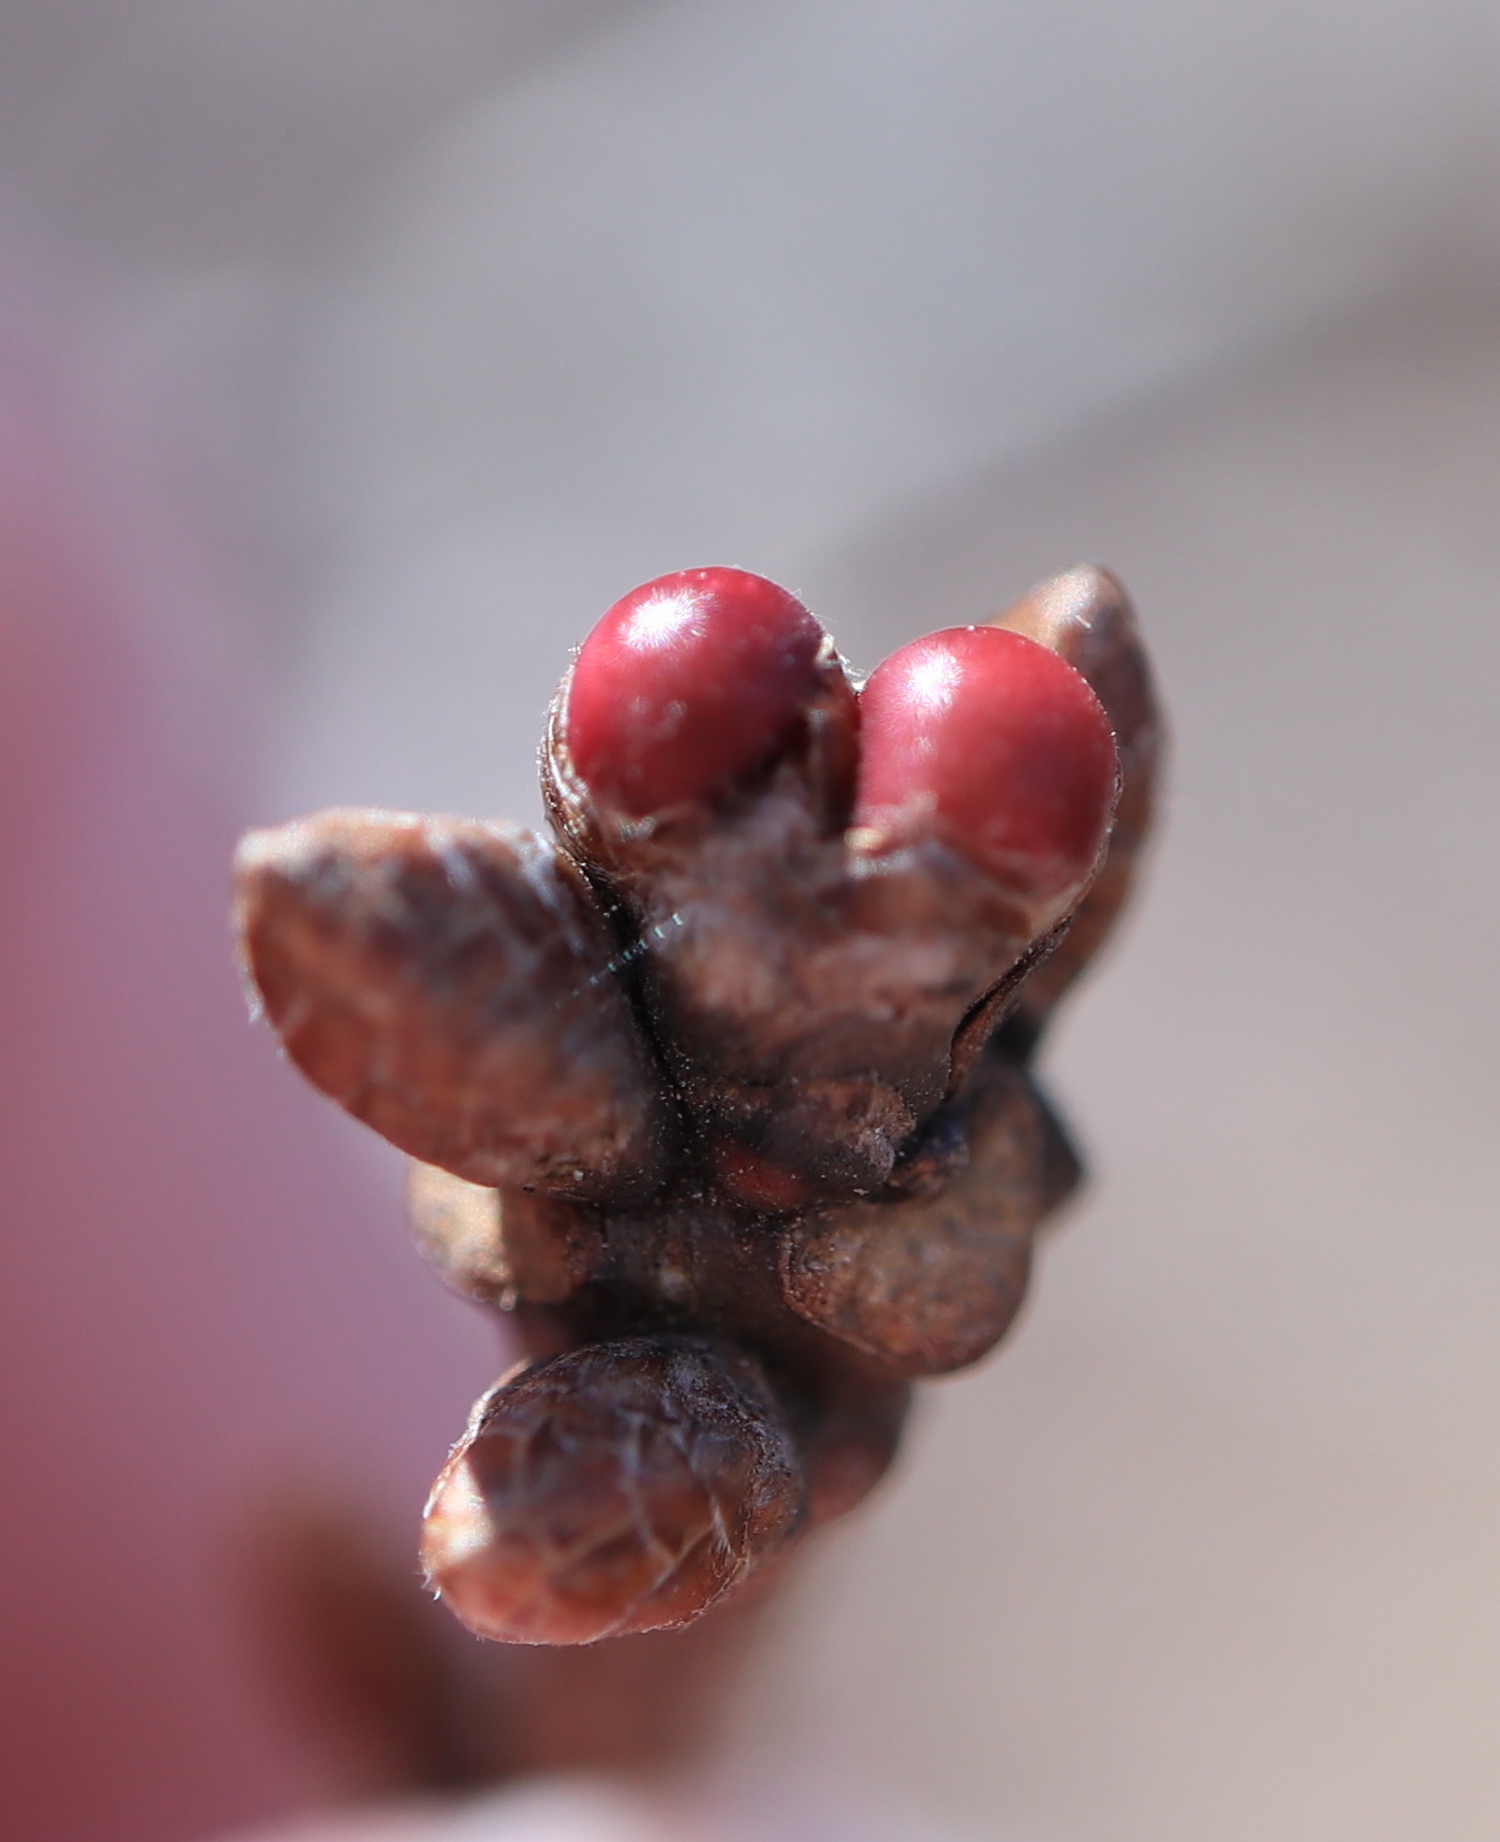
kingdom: Animalia
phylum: Arthropoda
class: Insecta
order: Hymenoptera
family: Cynipidae
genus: Neuroterus
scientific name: Neuroterus
